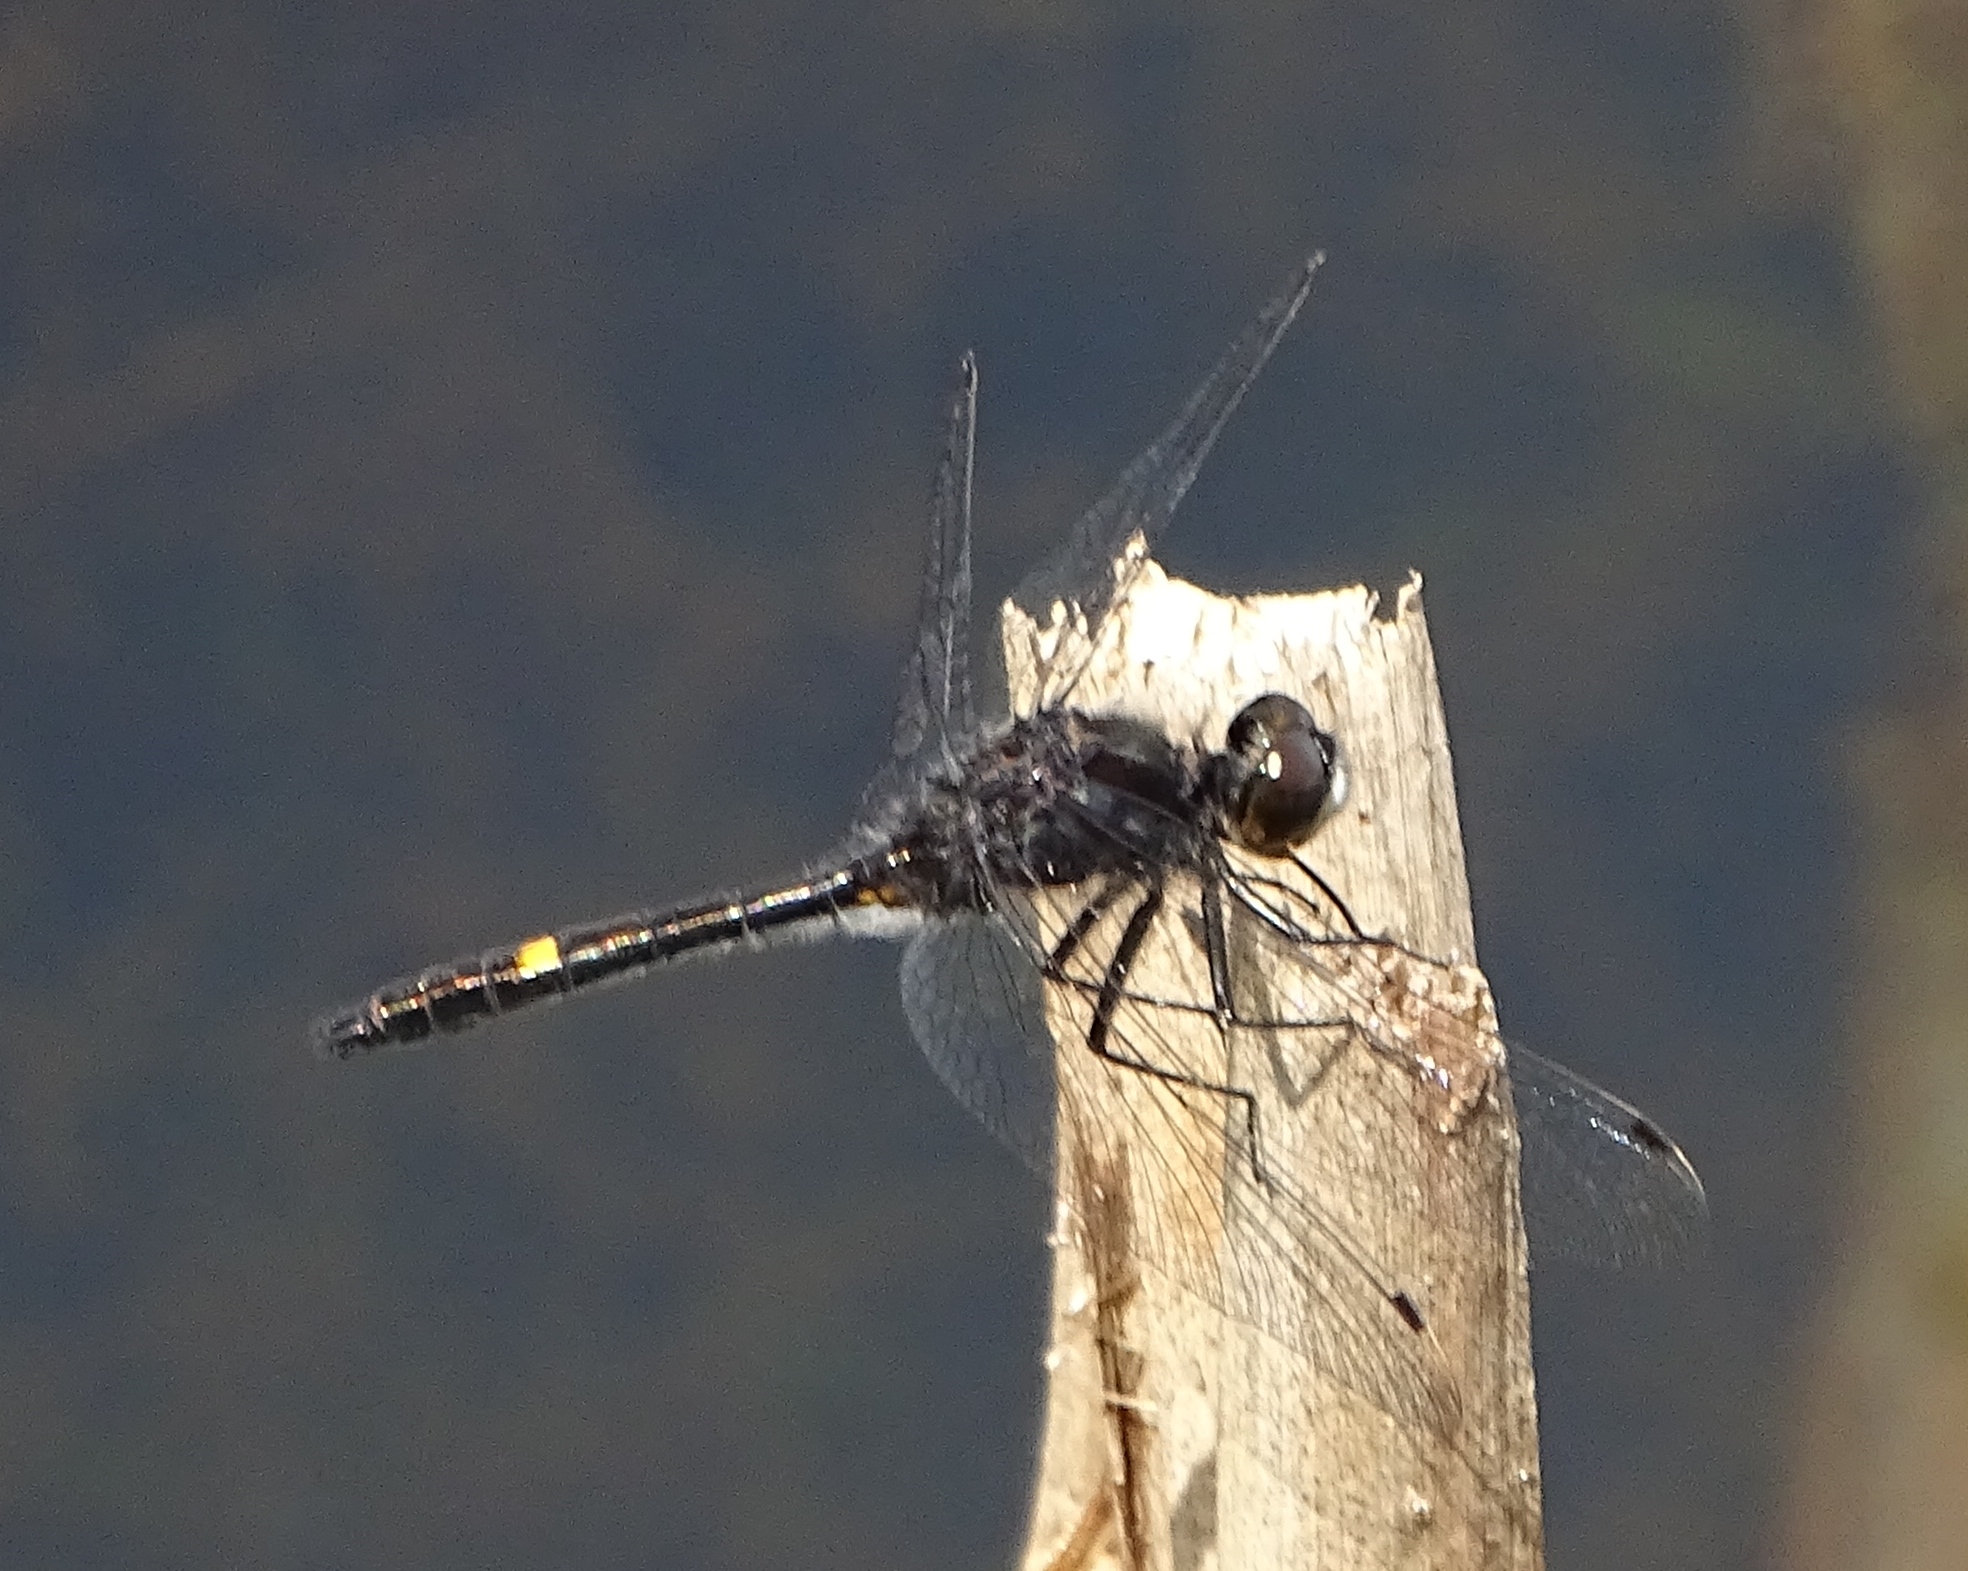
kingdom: Animalia
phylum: Arthropoda
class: Insecta
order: Odonata
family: Libellulidae
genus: Leucorrhinia
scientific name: Leucorrhinia intacta
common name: Dot-tailed whiteface
